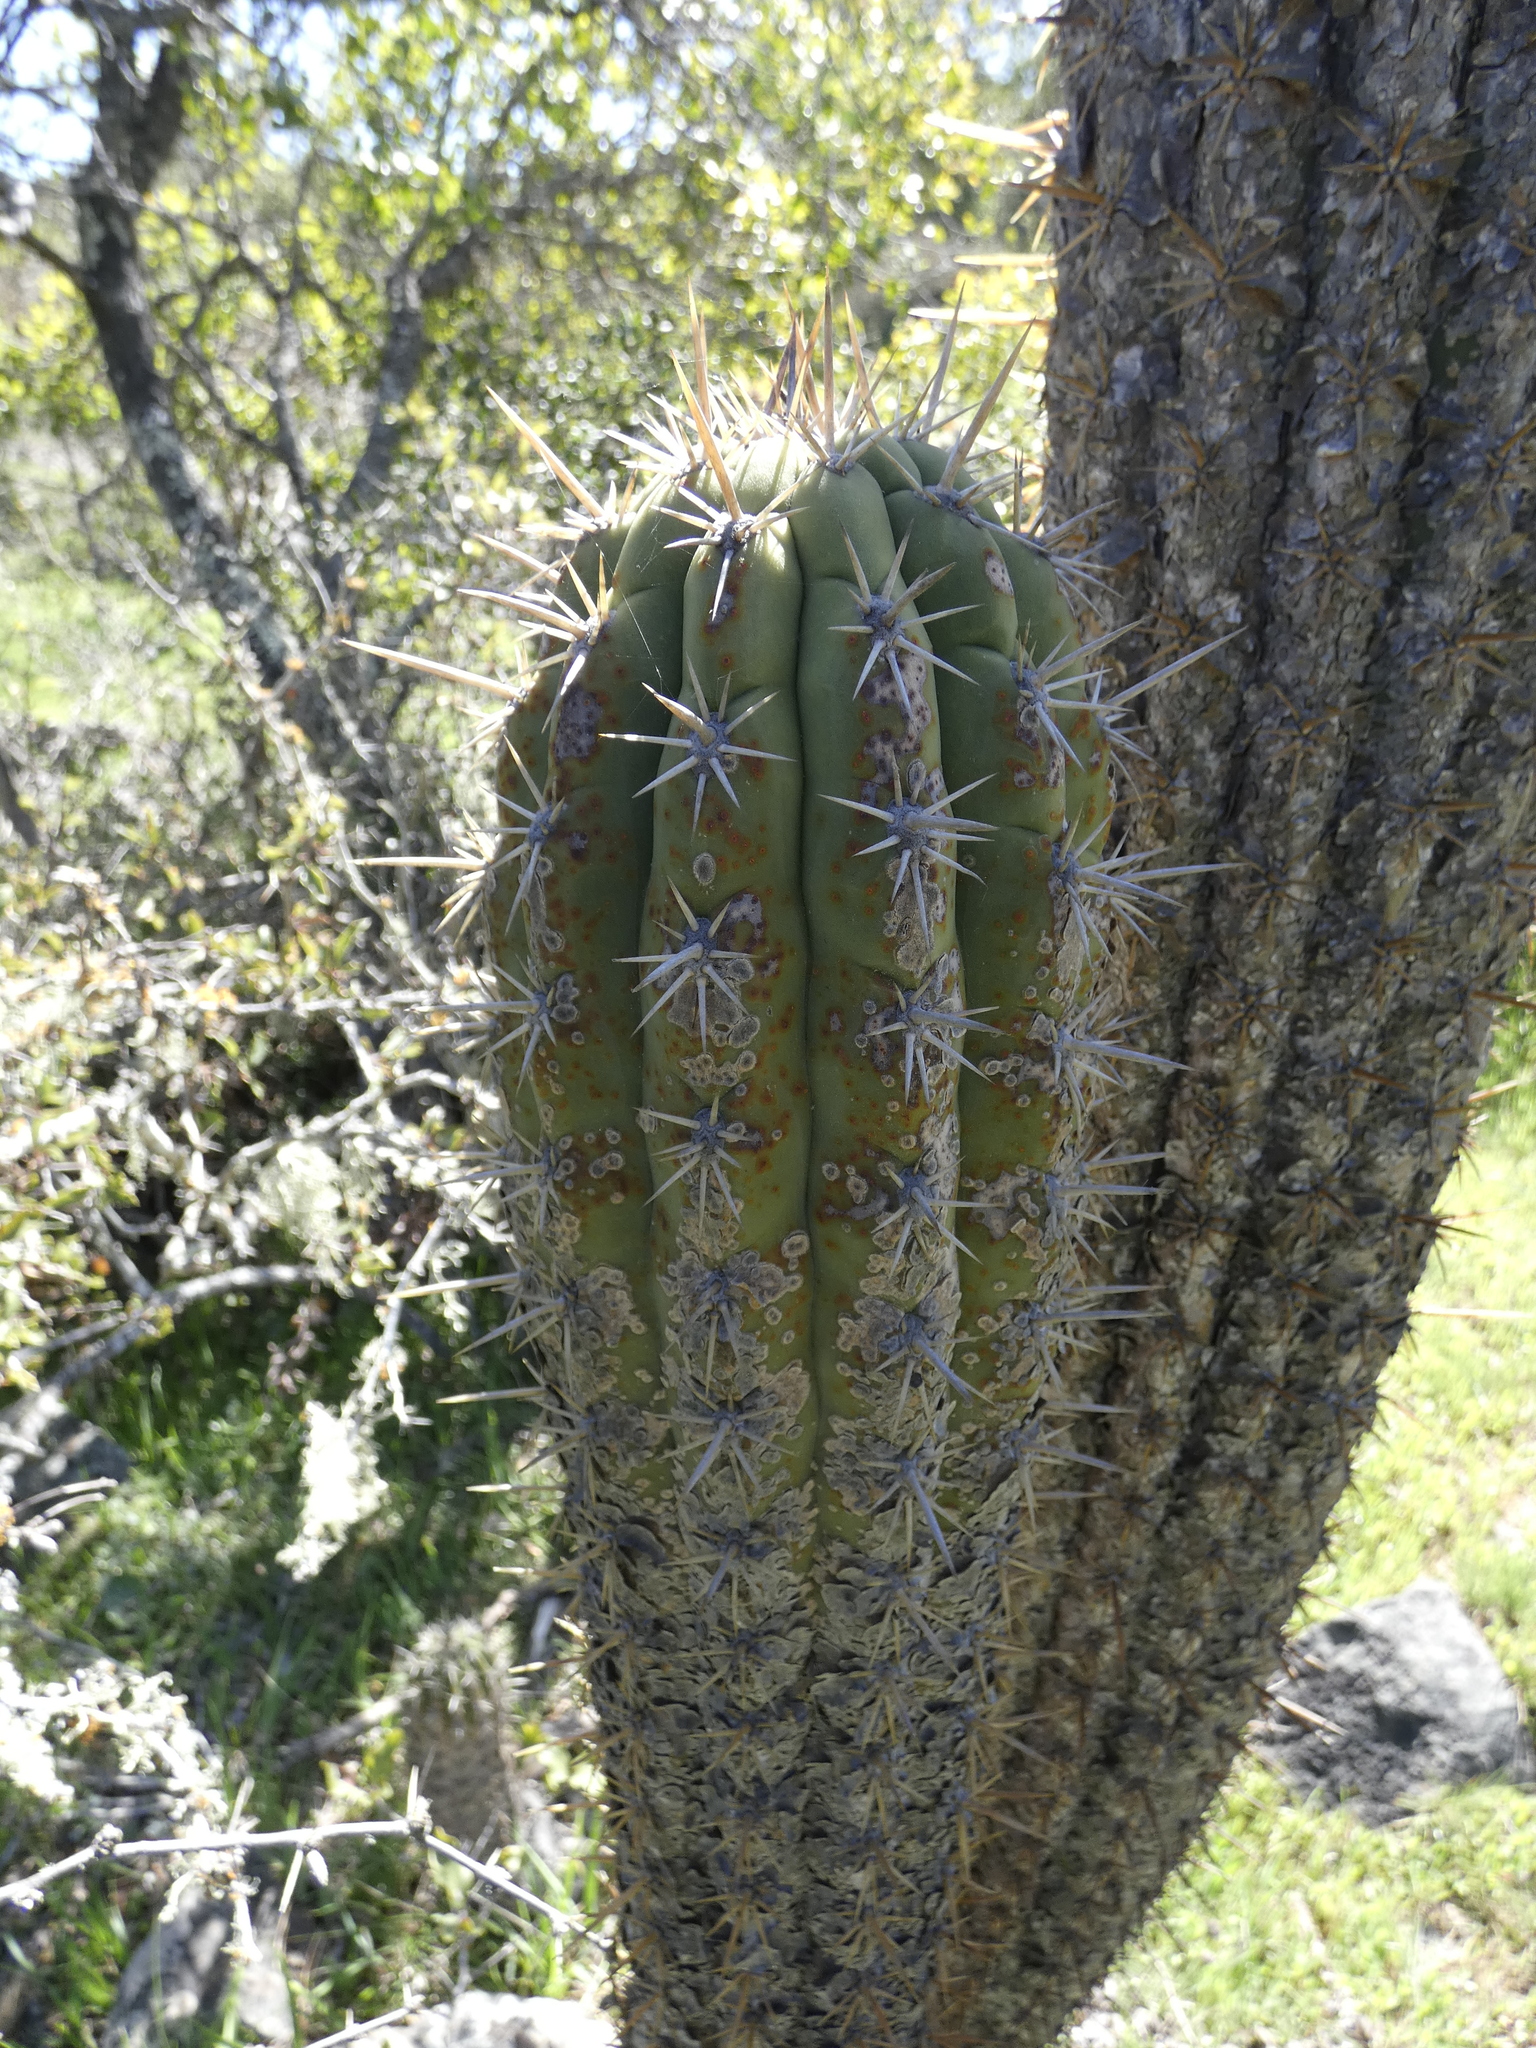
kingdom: Plantae
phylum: Tracheophyta
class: Magnoliopsida
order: Caryophyllales
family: Cactaceae
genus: Leucostele
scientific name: Leucostele chiloensis
